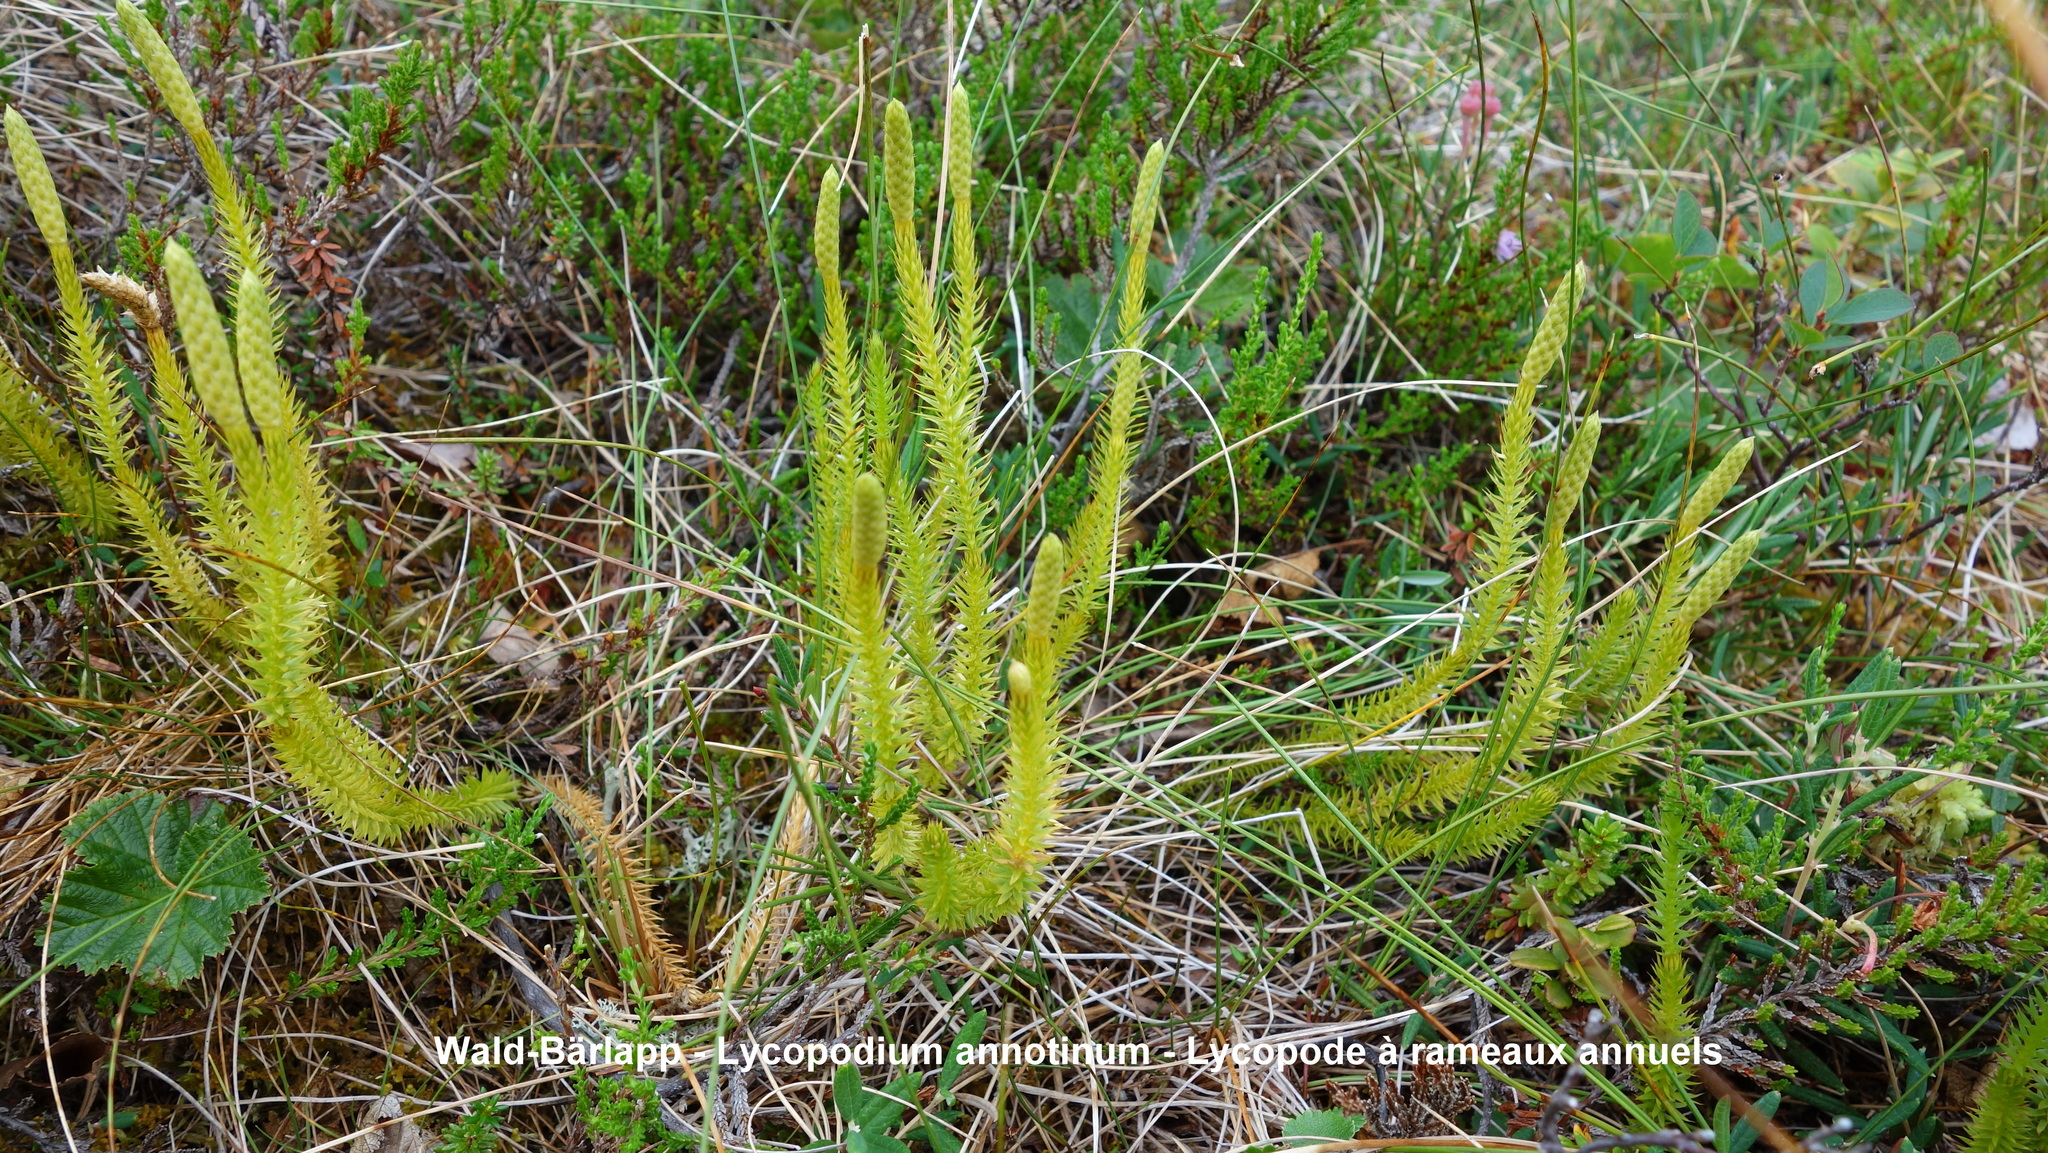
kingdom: Plantae
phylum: Tracheophyta
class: Lycopodiopsida
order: Lycopodiales
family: Lycopodiaceae
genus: Spinulum
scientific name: Spinulum annotinum
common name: Interrupted club-moss
